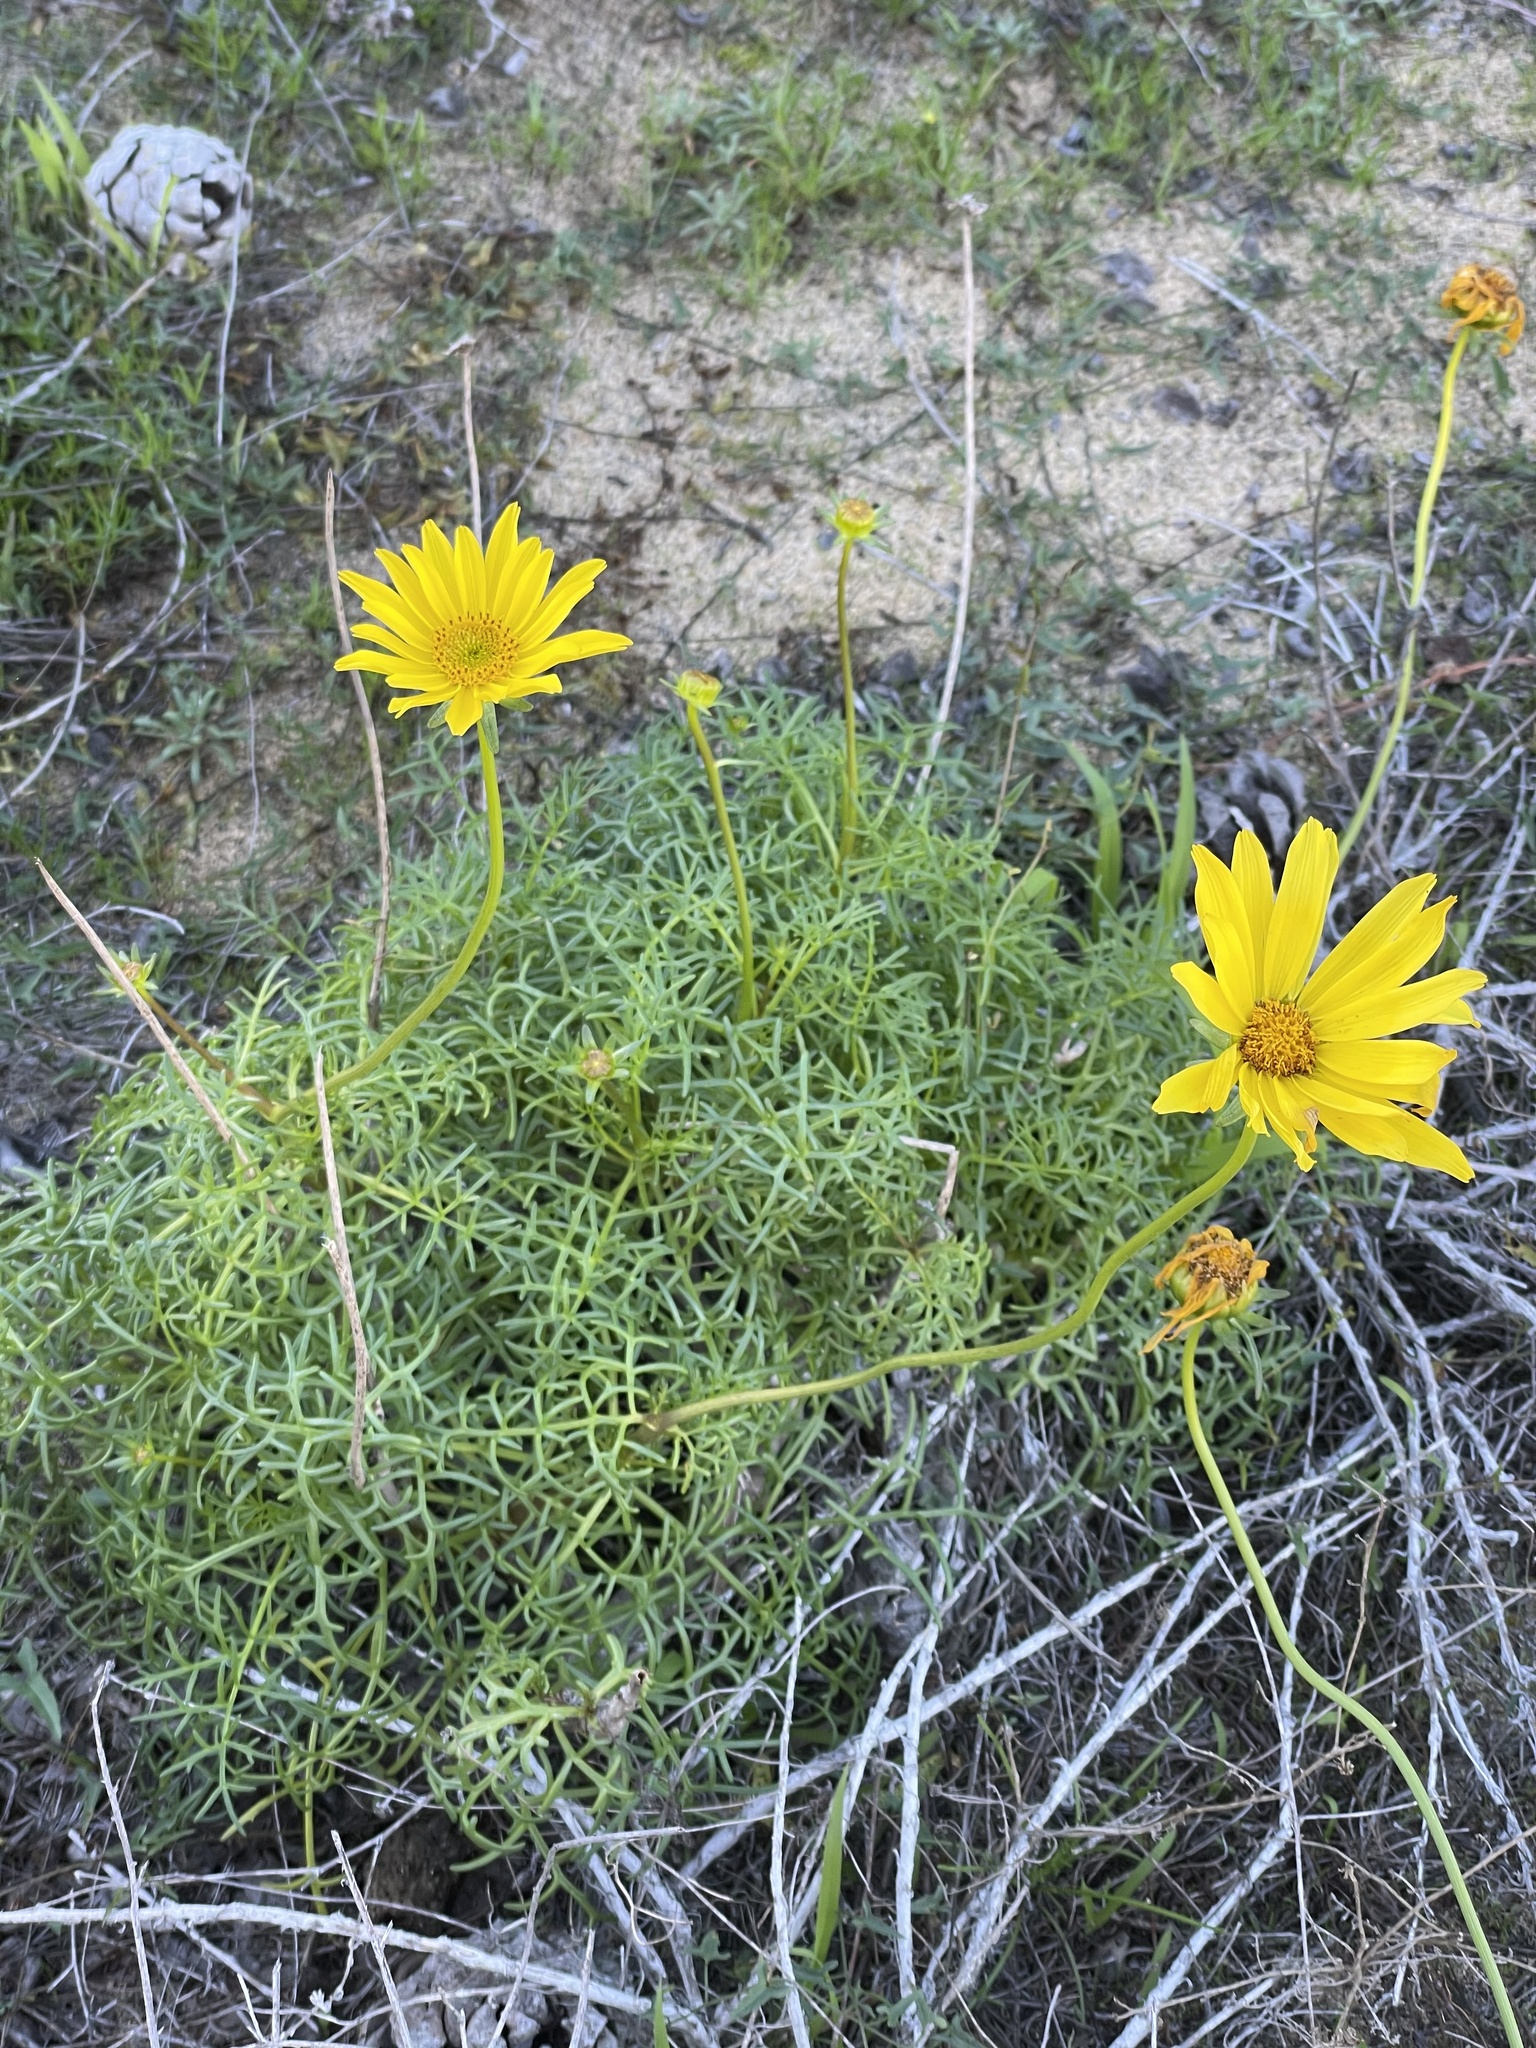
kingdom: Plantae
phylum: Tracheophyta
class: Magnoliopsida
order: Asterales
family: Asteraceae
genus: Coreopsis
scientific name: Coreopsis maritima
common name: Sea-dahlia
